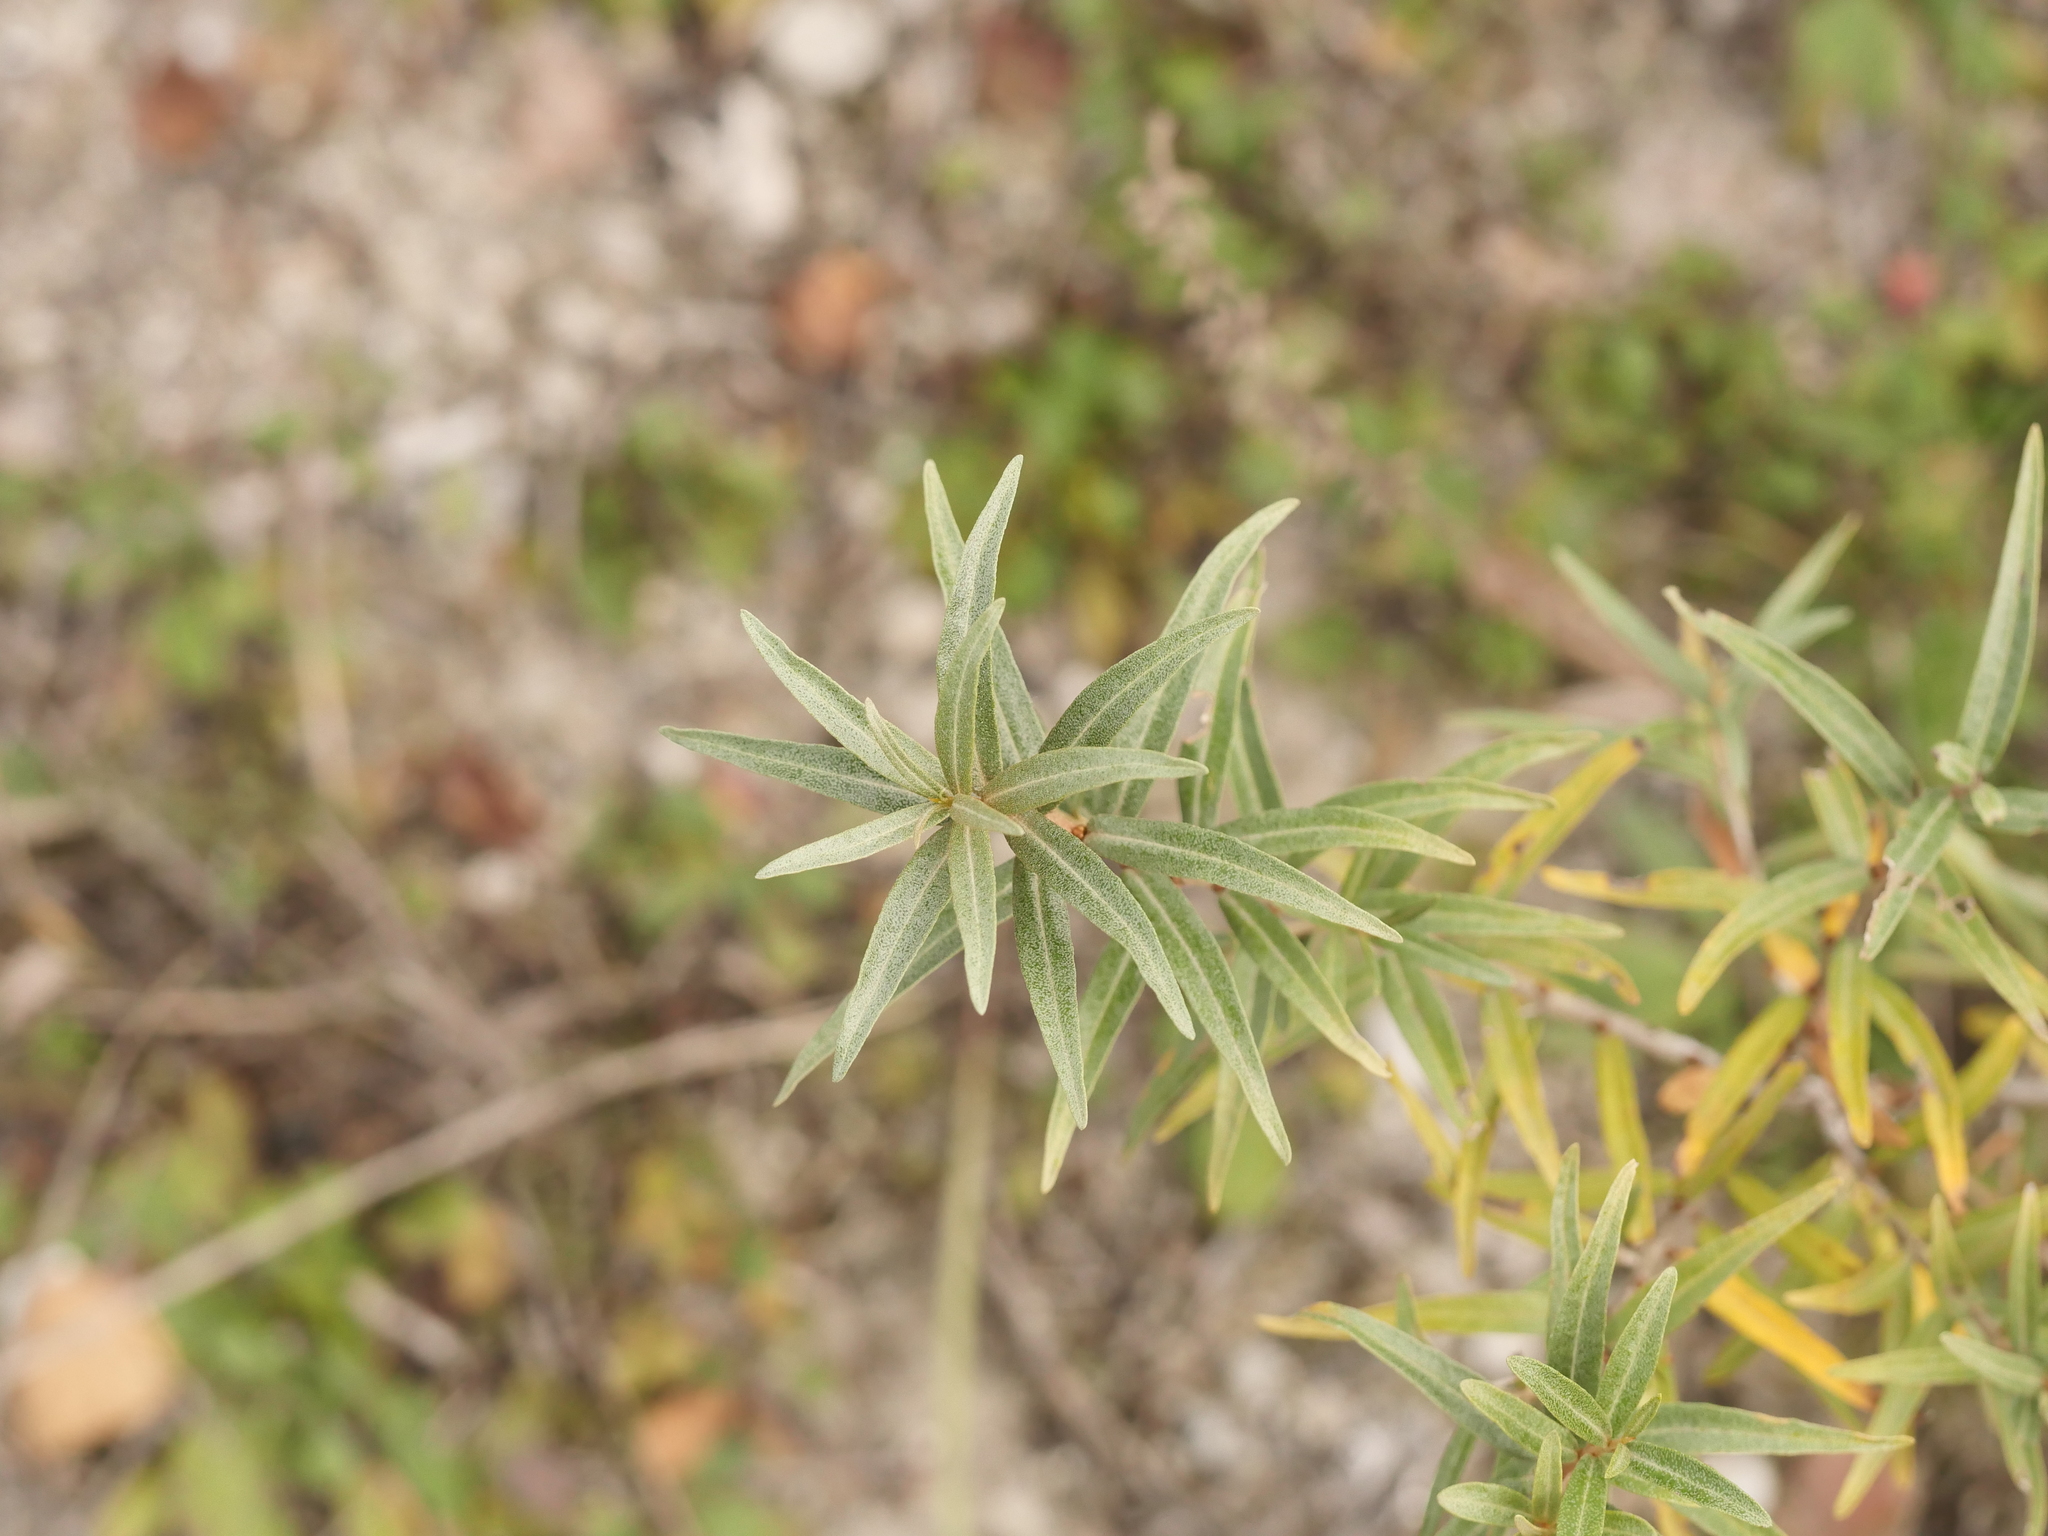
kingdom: Plantae
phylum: Tracheophyta
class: Magnoliopsida
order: Rosales
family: Elaeagnaceae
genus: Hippophae
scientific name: Hippophae rhamnoides
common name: Sea-buckthorn
